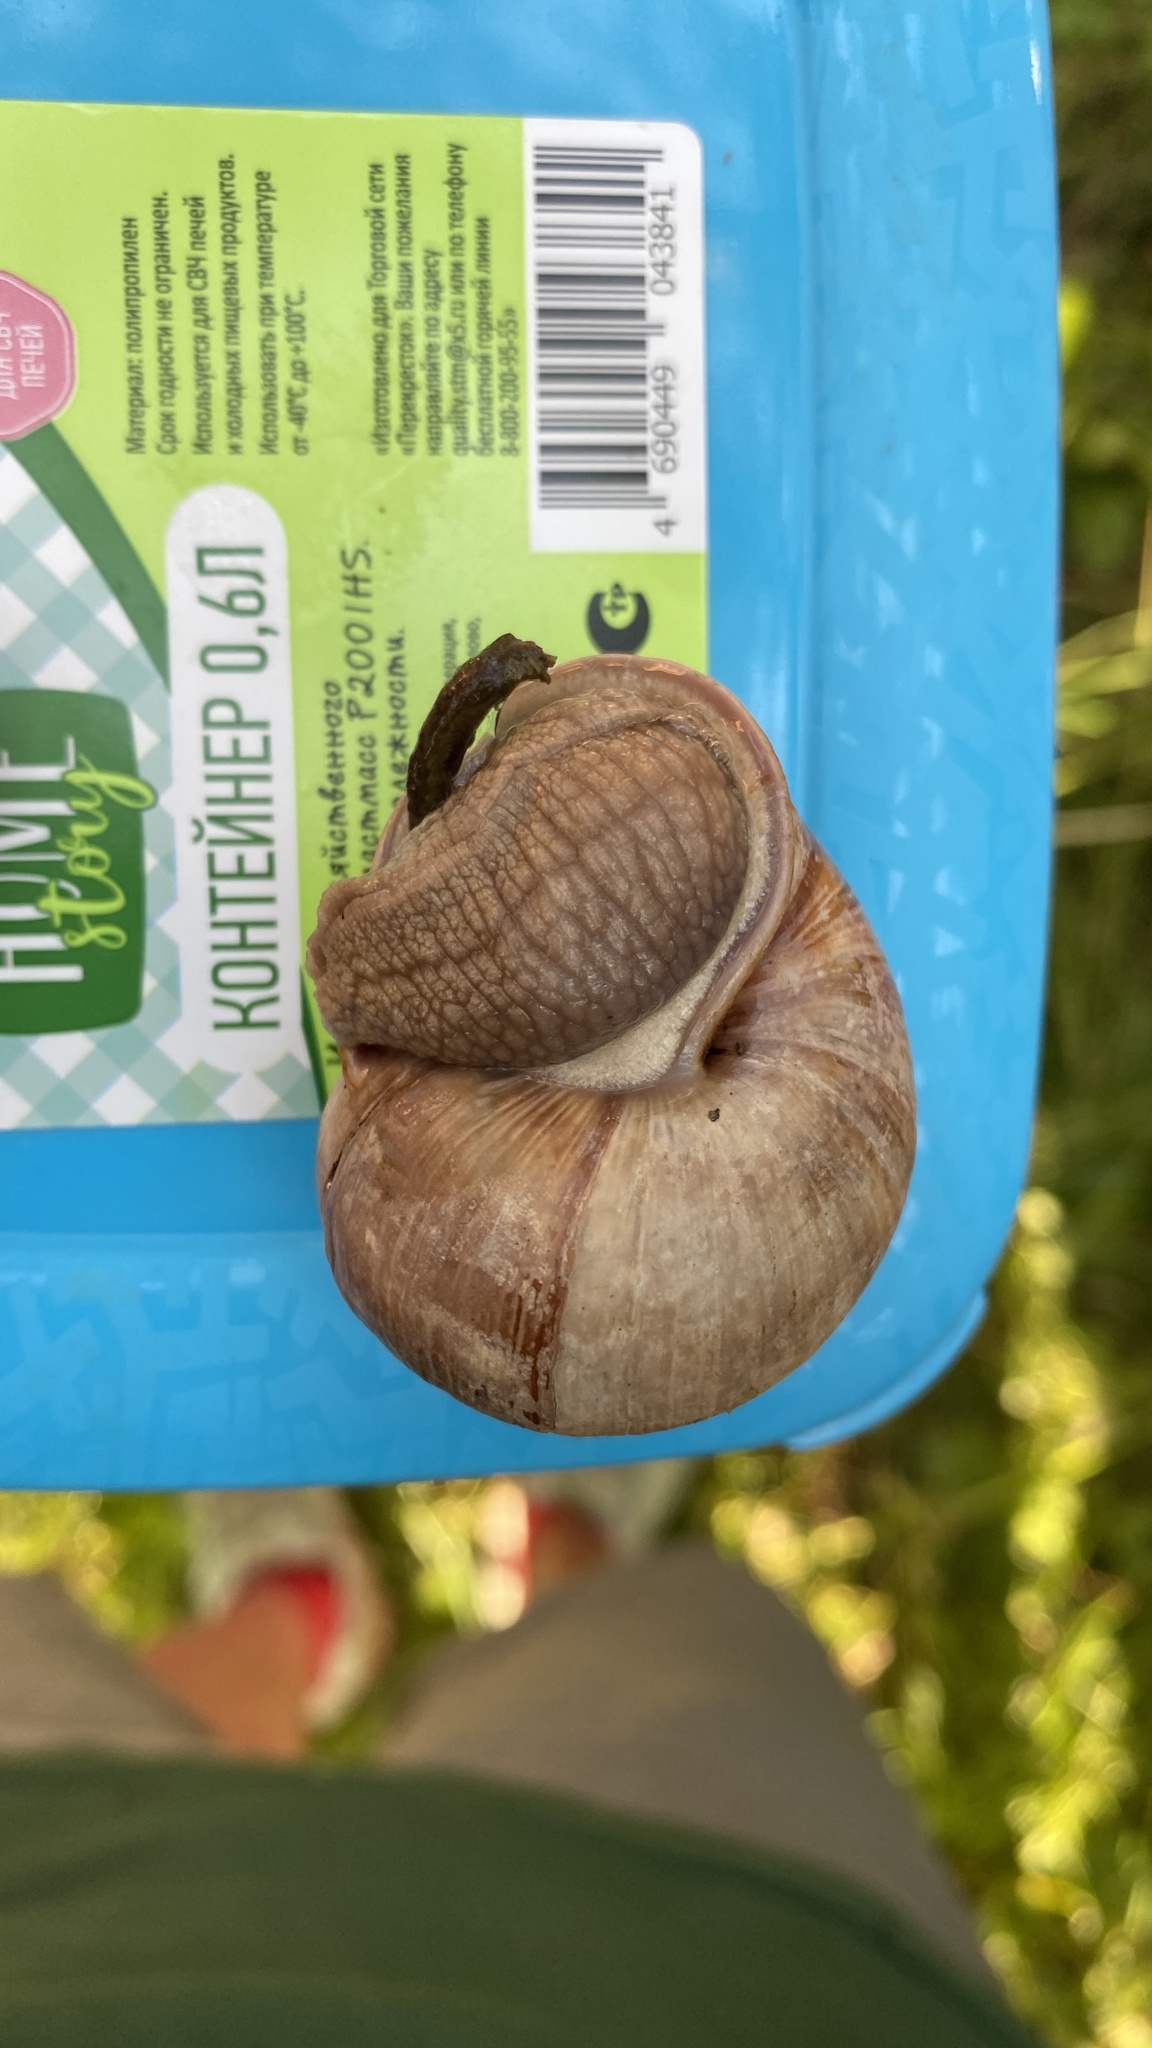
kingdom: Animalia
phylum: Mollusca
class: Gastropoda
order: Stylommatophora
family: Helicidae
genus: Helix
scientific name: Helix pomatia
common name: Roman snail
